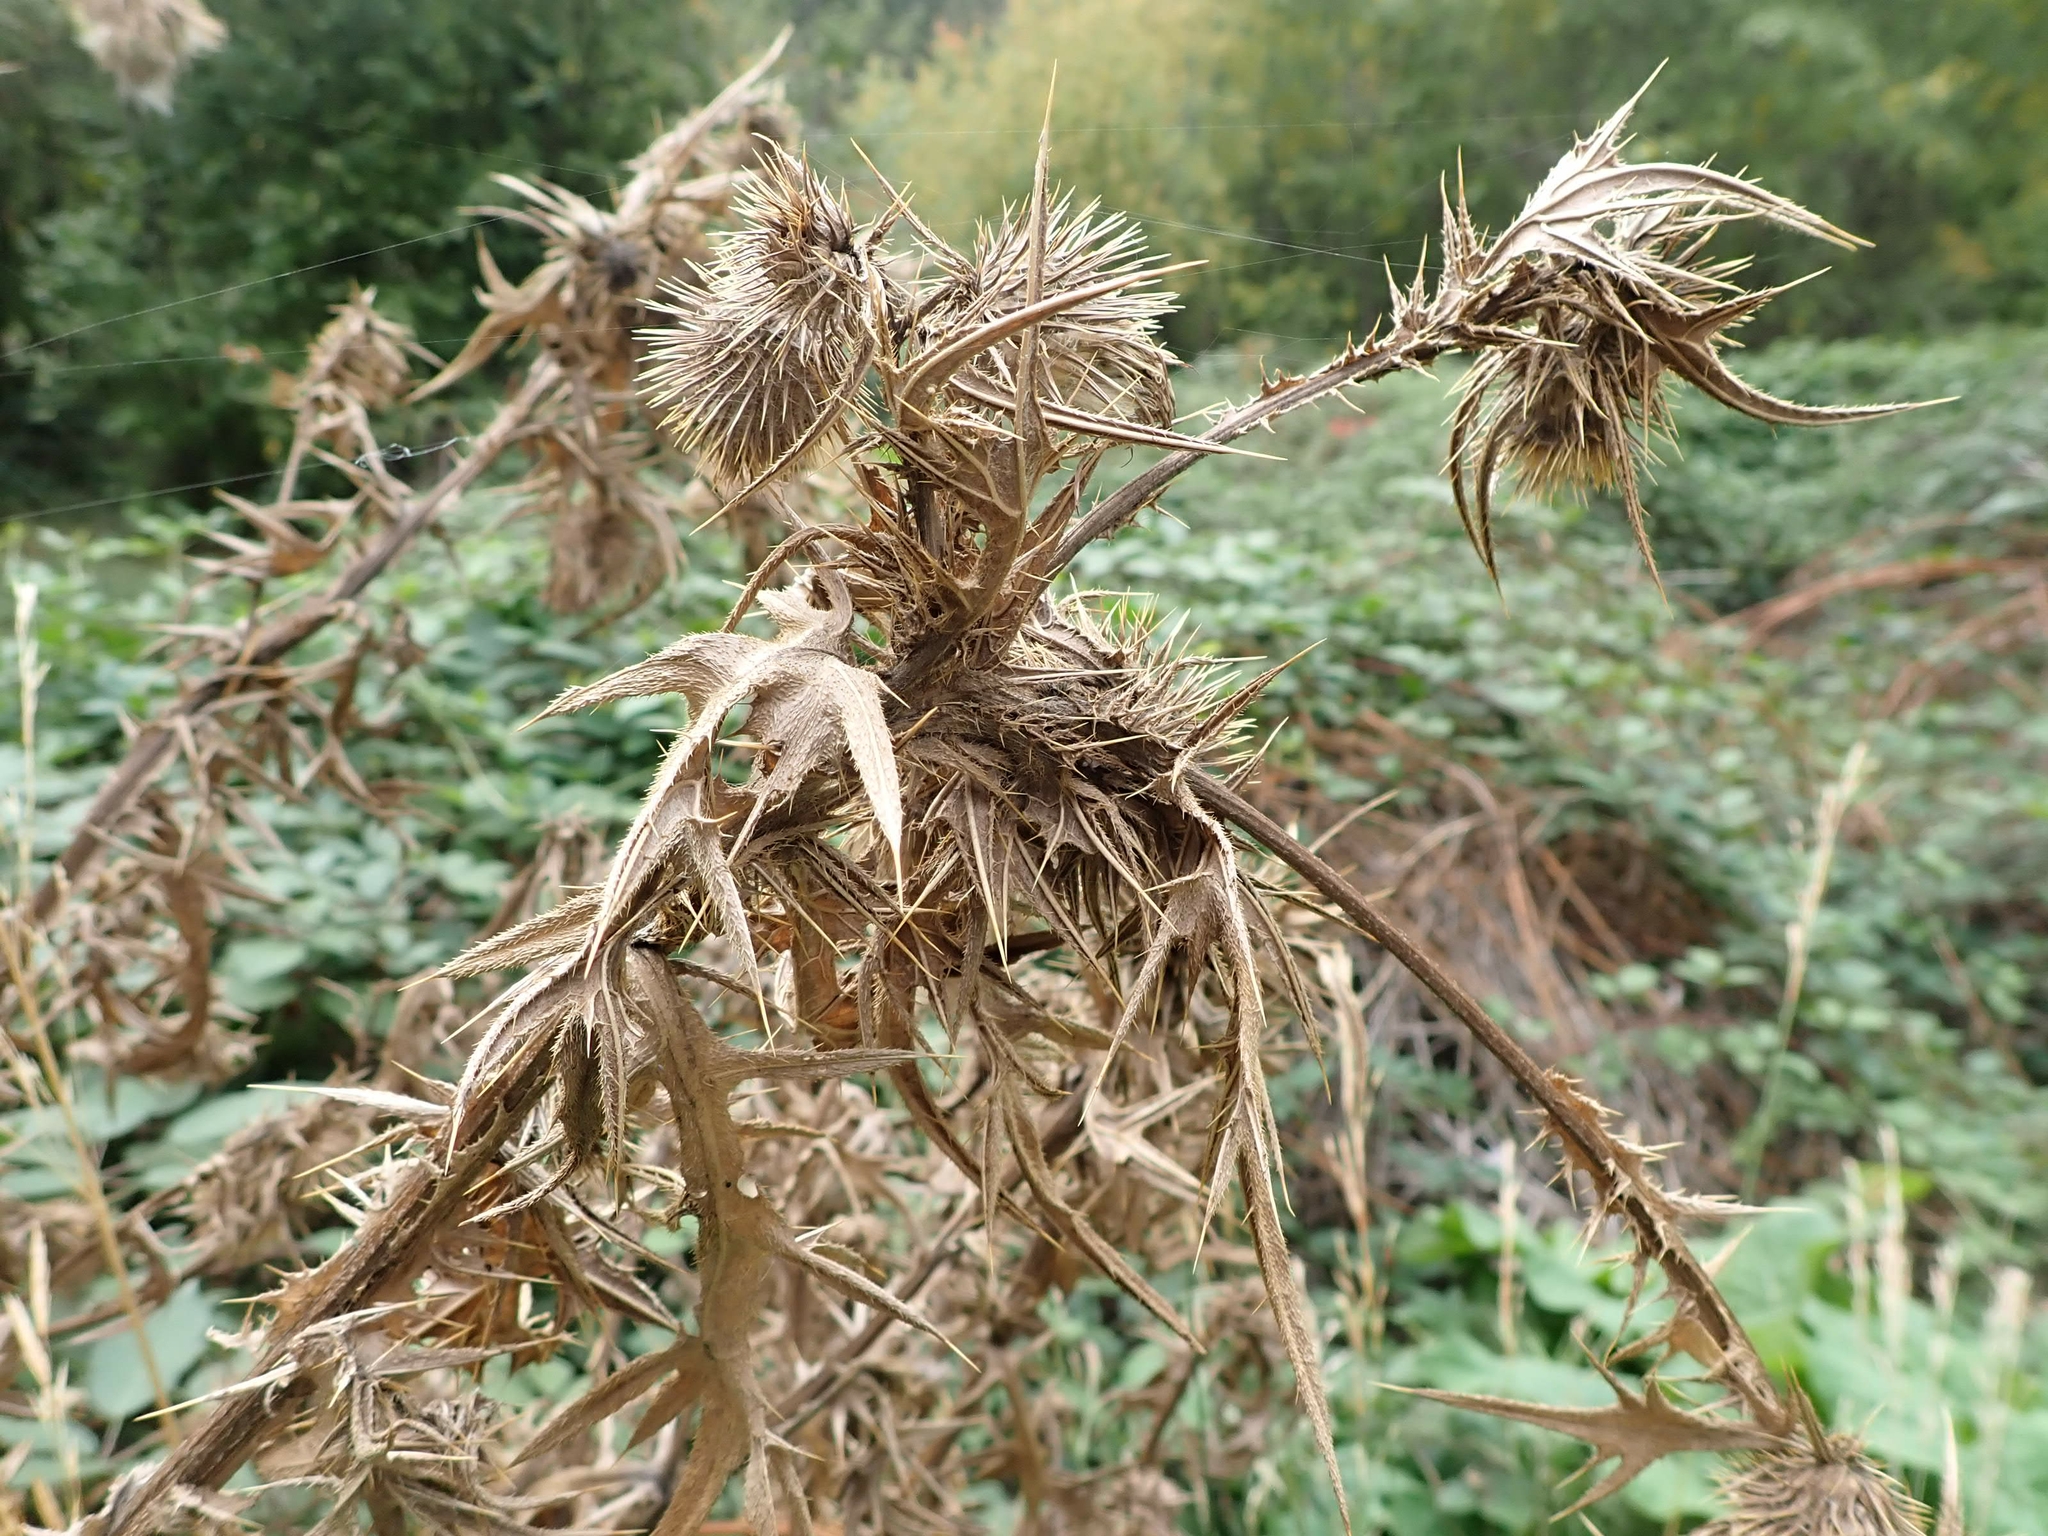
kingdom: Plantae
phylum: Tracheophyta
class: Magnoliopsida
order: Asterales
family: Asteraceae
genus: Cirsium
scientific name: Cirsium vulgare
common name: Bull thistle
